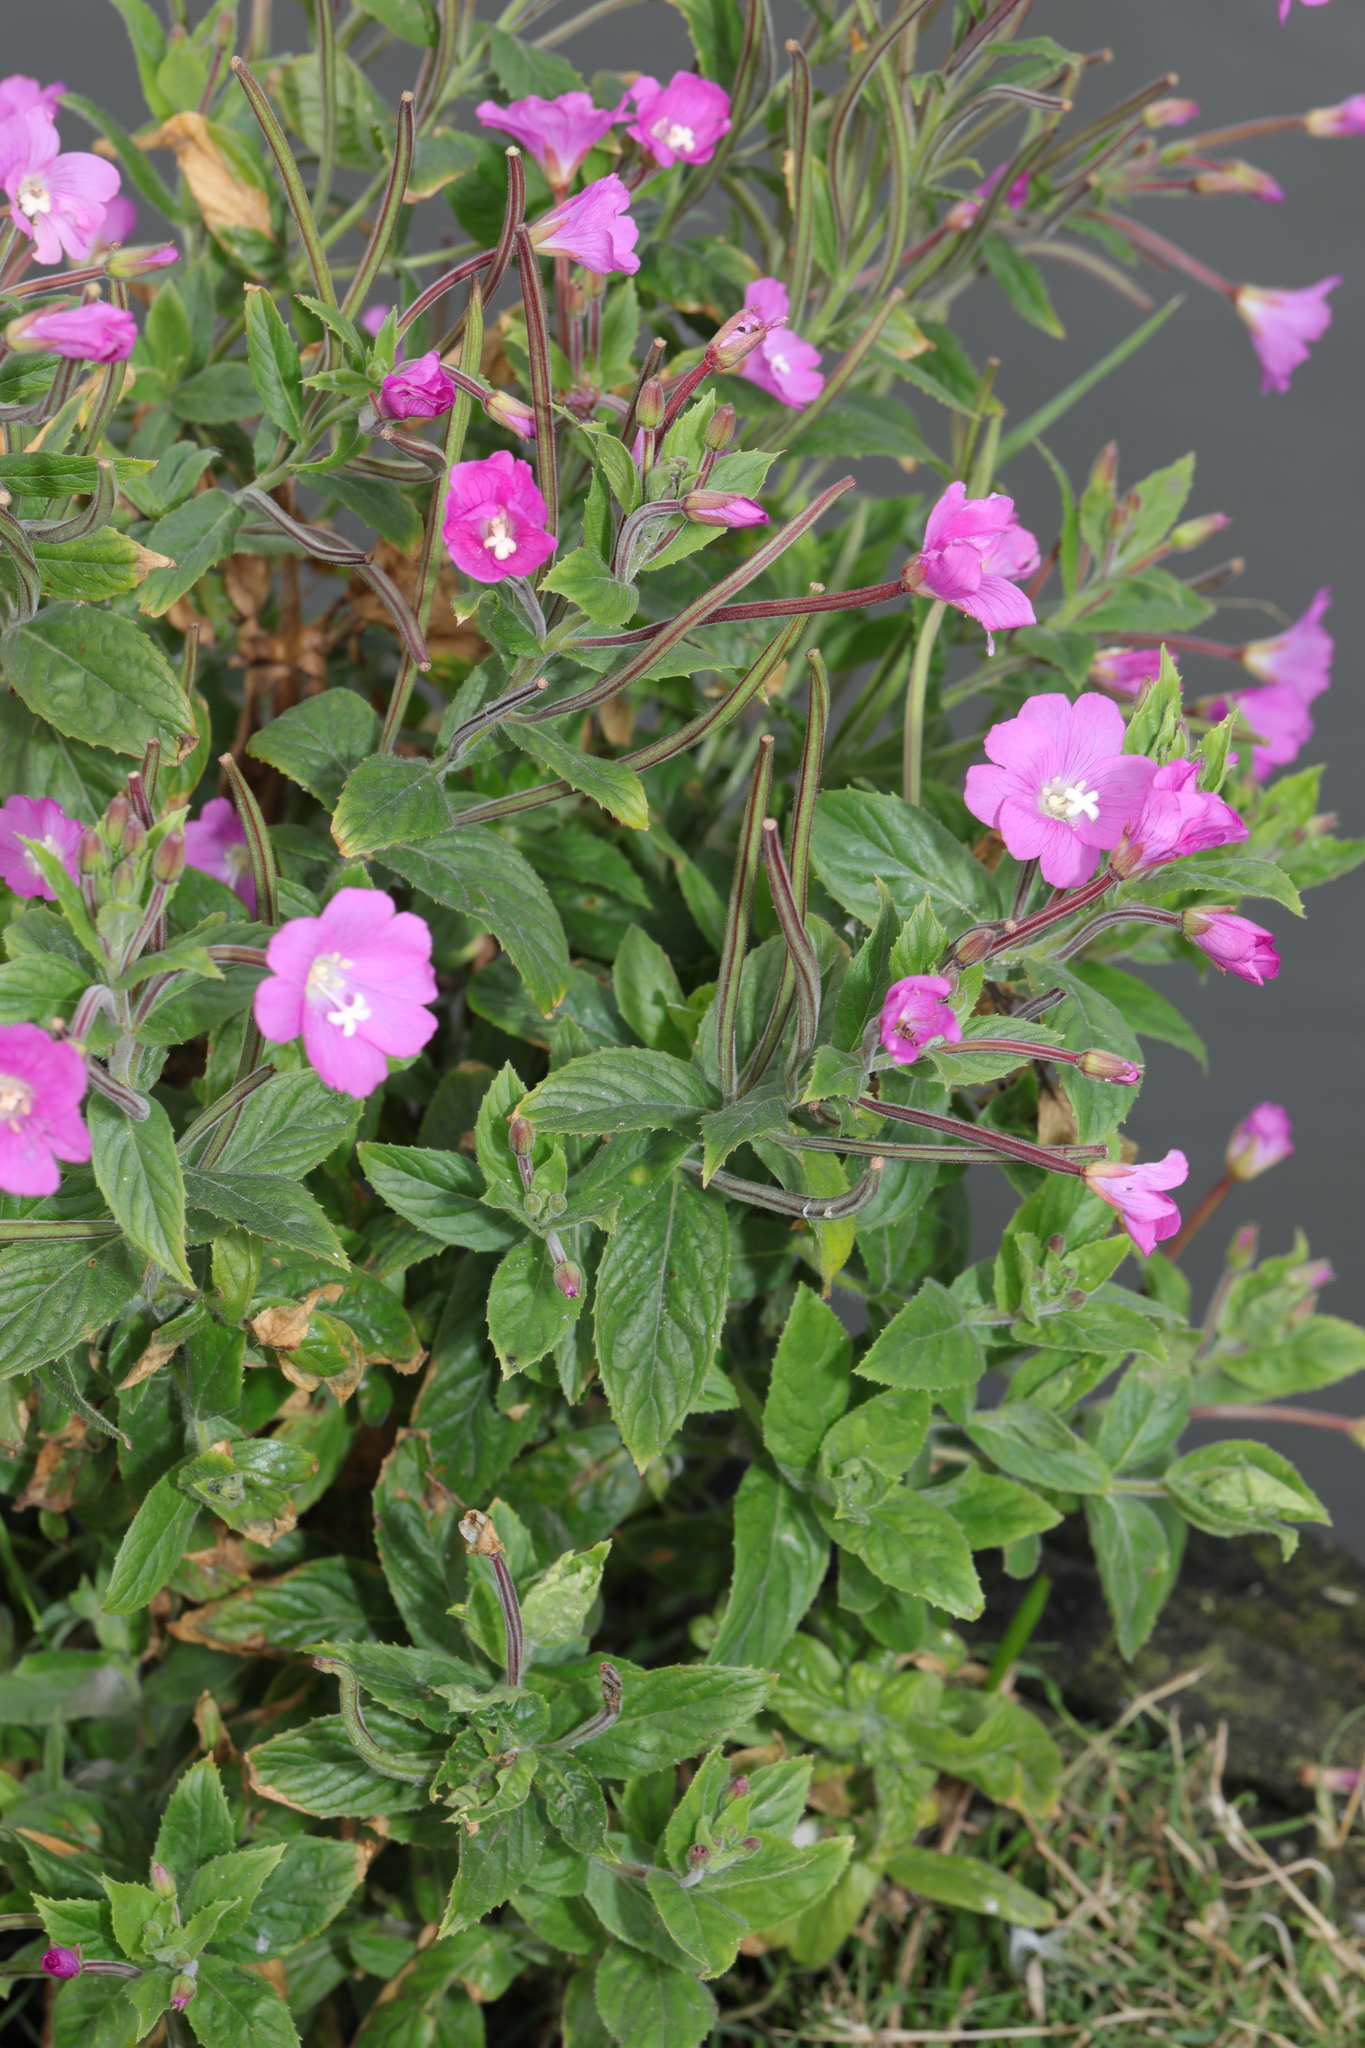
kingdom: Plantae
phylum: Tracheophyta
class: Magnoliopsida
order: Myrtales
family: Onagraceae
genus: Epilobium
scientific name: Epilobium hirsutum
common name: Great willowherb
